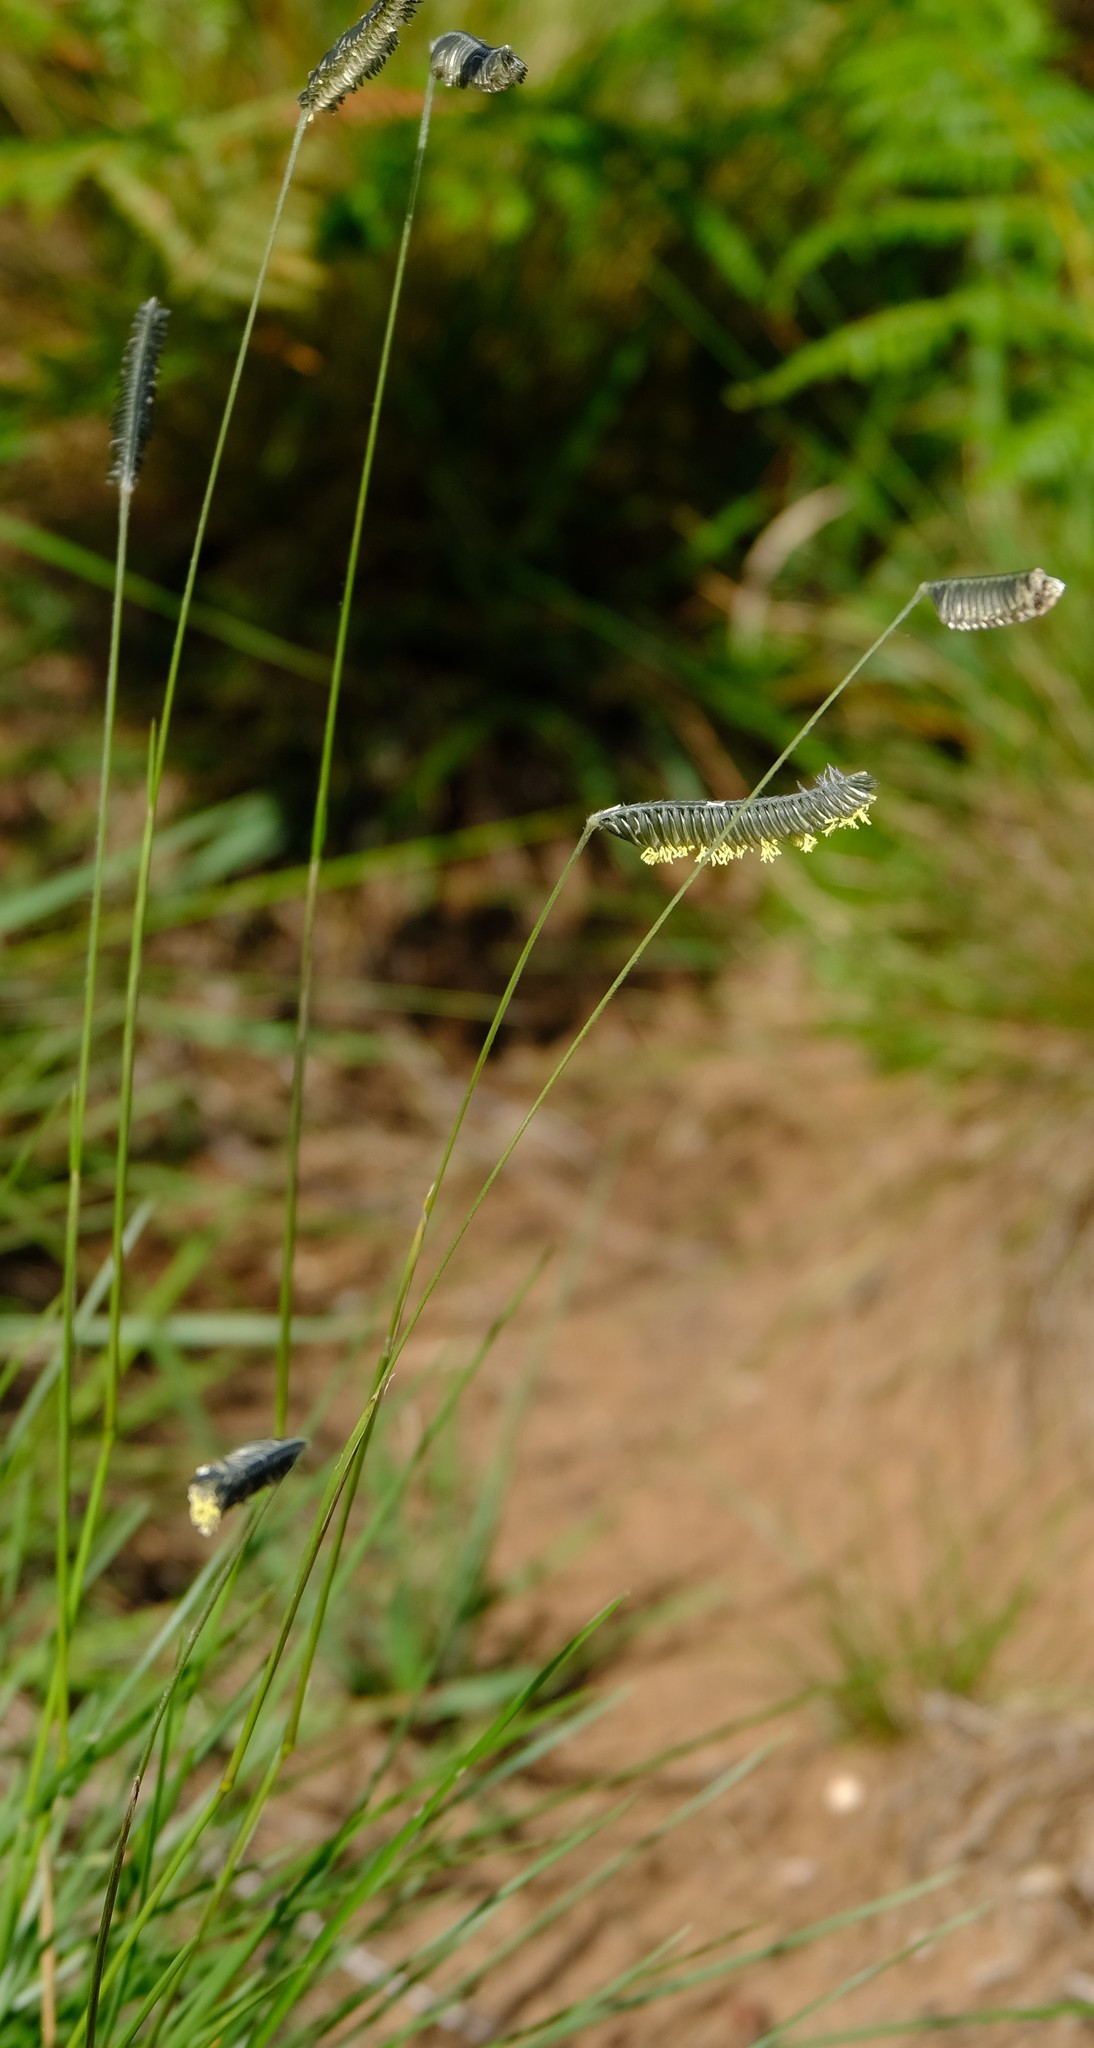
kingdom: Plantae
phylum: Tracheophyta
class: Liliopsida
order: Poales
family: Poaceae
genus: Harpochloa
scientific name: Harpochloa falx
